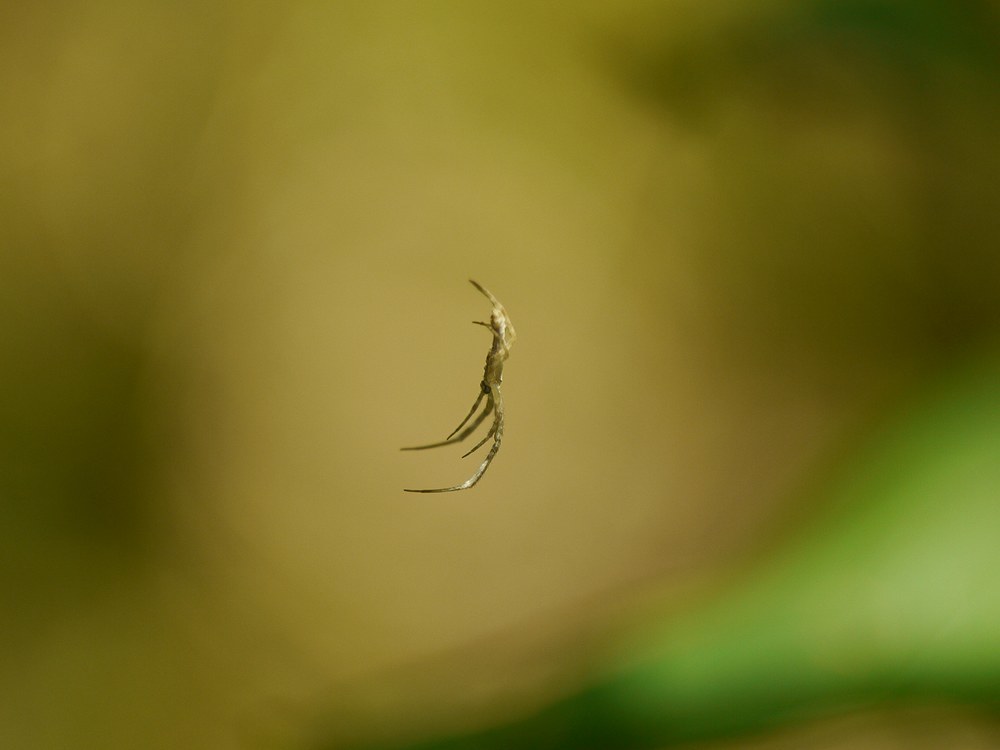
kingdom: Animalia
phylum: Arthropoda
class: Arachnida
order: Araneae
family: Uloboridae
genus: Uloborus
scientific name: Uloborus walckenaerius
